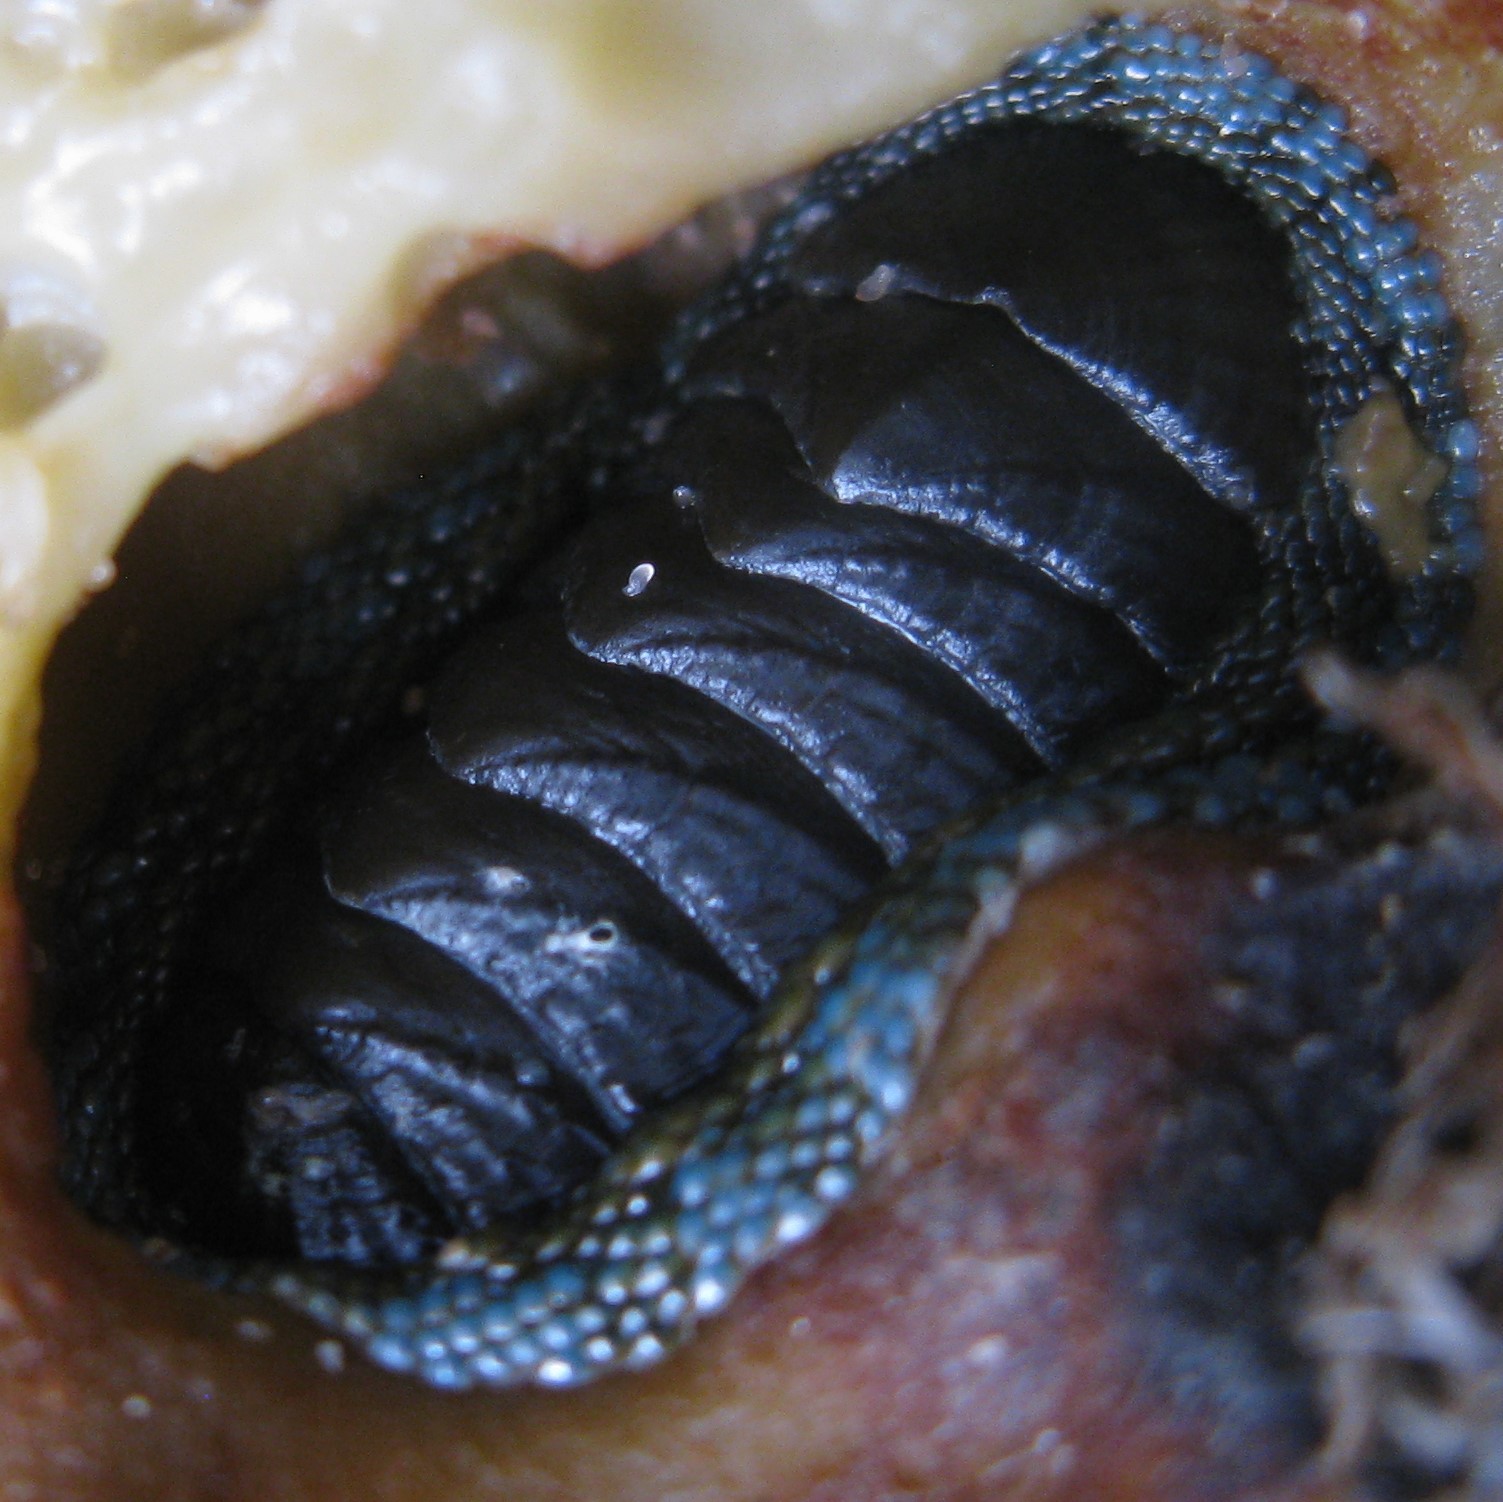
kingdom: Animalia
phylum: Mollusca
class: Polyplacophora
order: Chitonida
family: Chitonidae
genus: Sypharochiton
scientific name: Sypharochiton sinclairi
